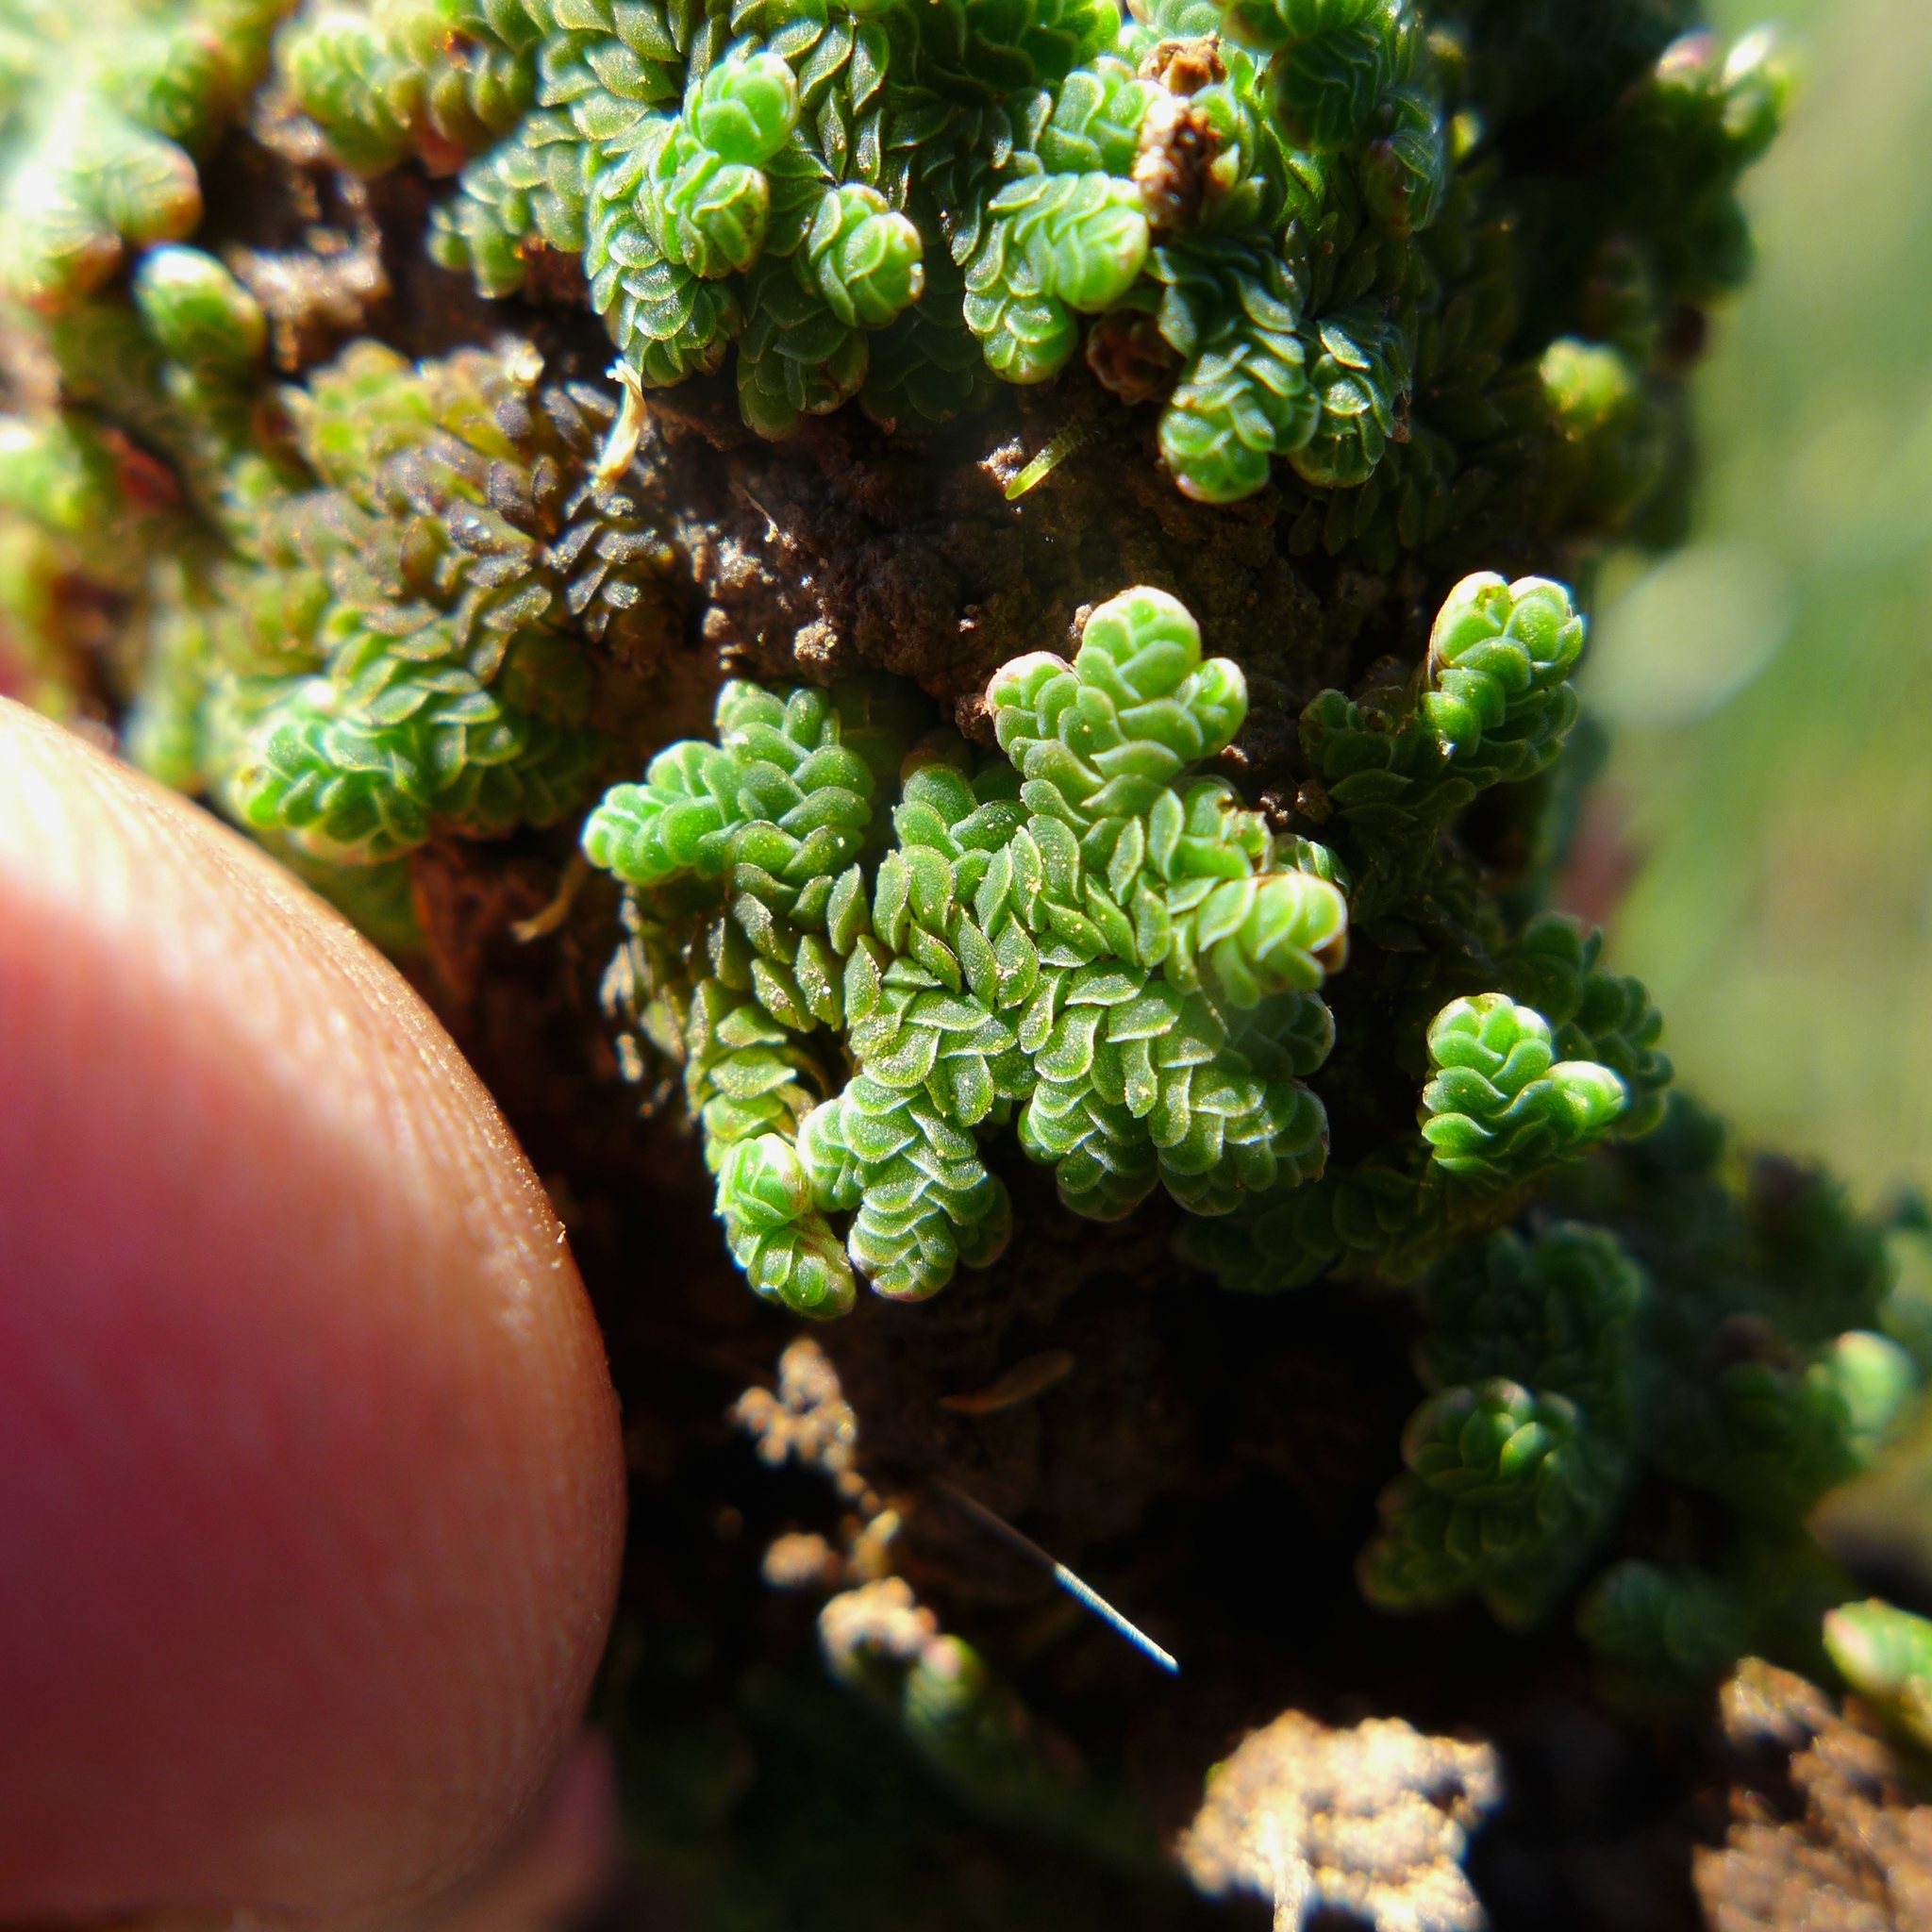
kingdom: Plantae
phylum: Tracheophyta
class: Polypodiopsida
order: Salviniales
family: Salviniaceae
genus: Azolla
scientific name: Azolla filiculoides
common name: Water fern
